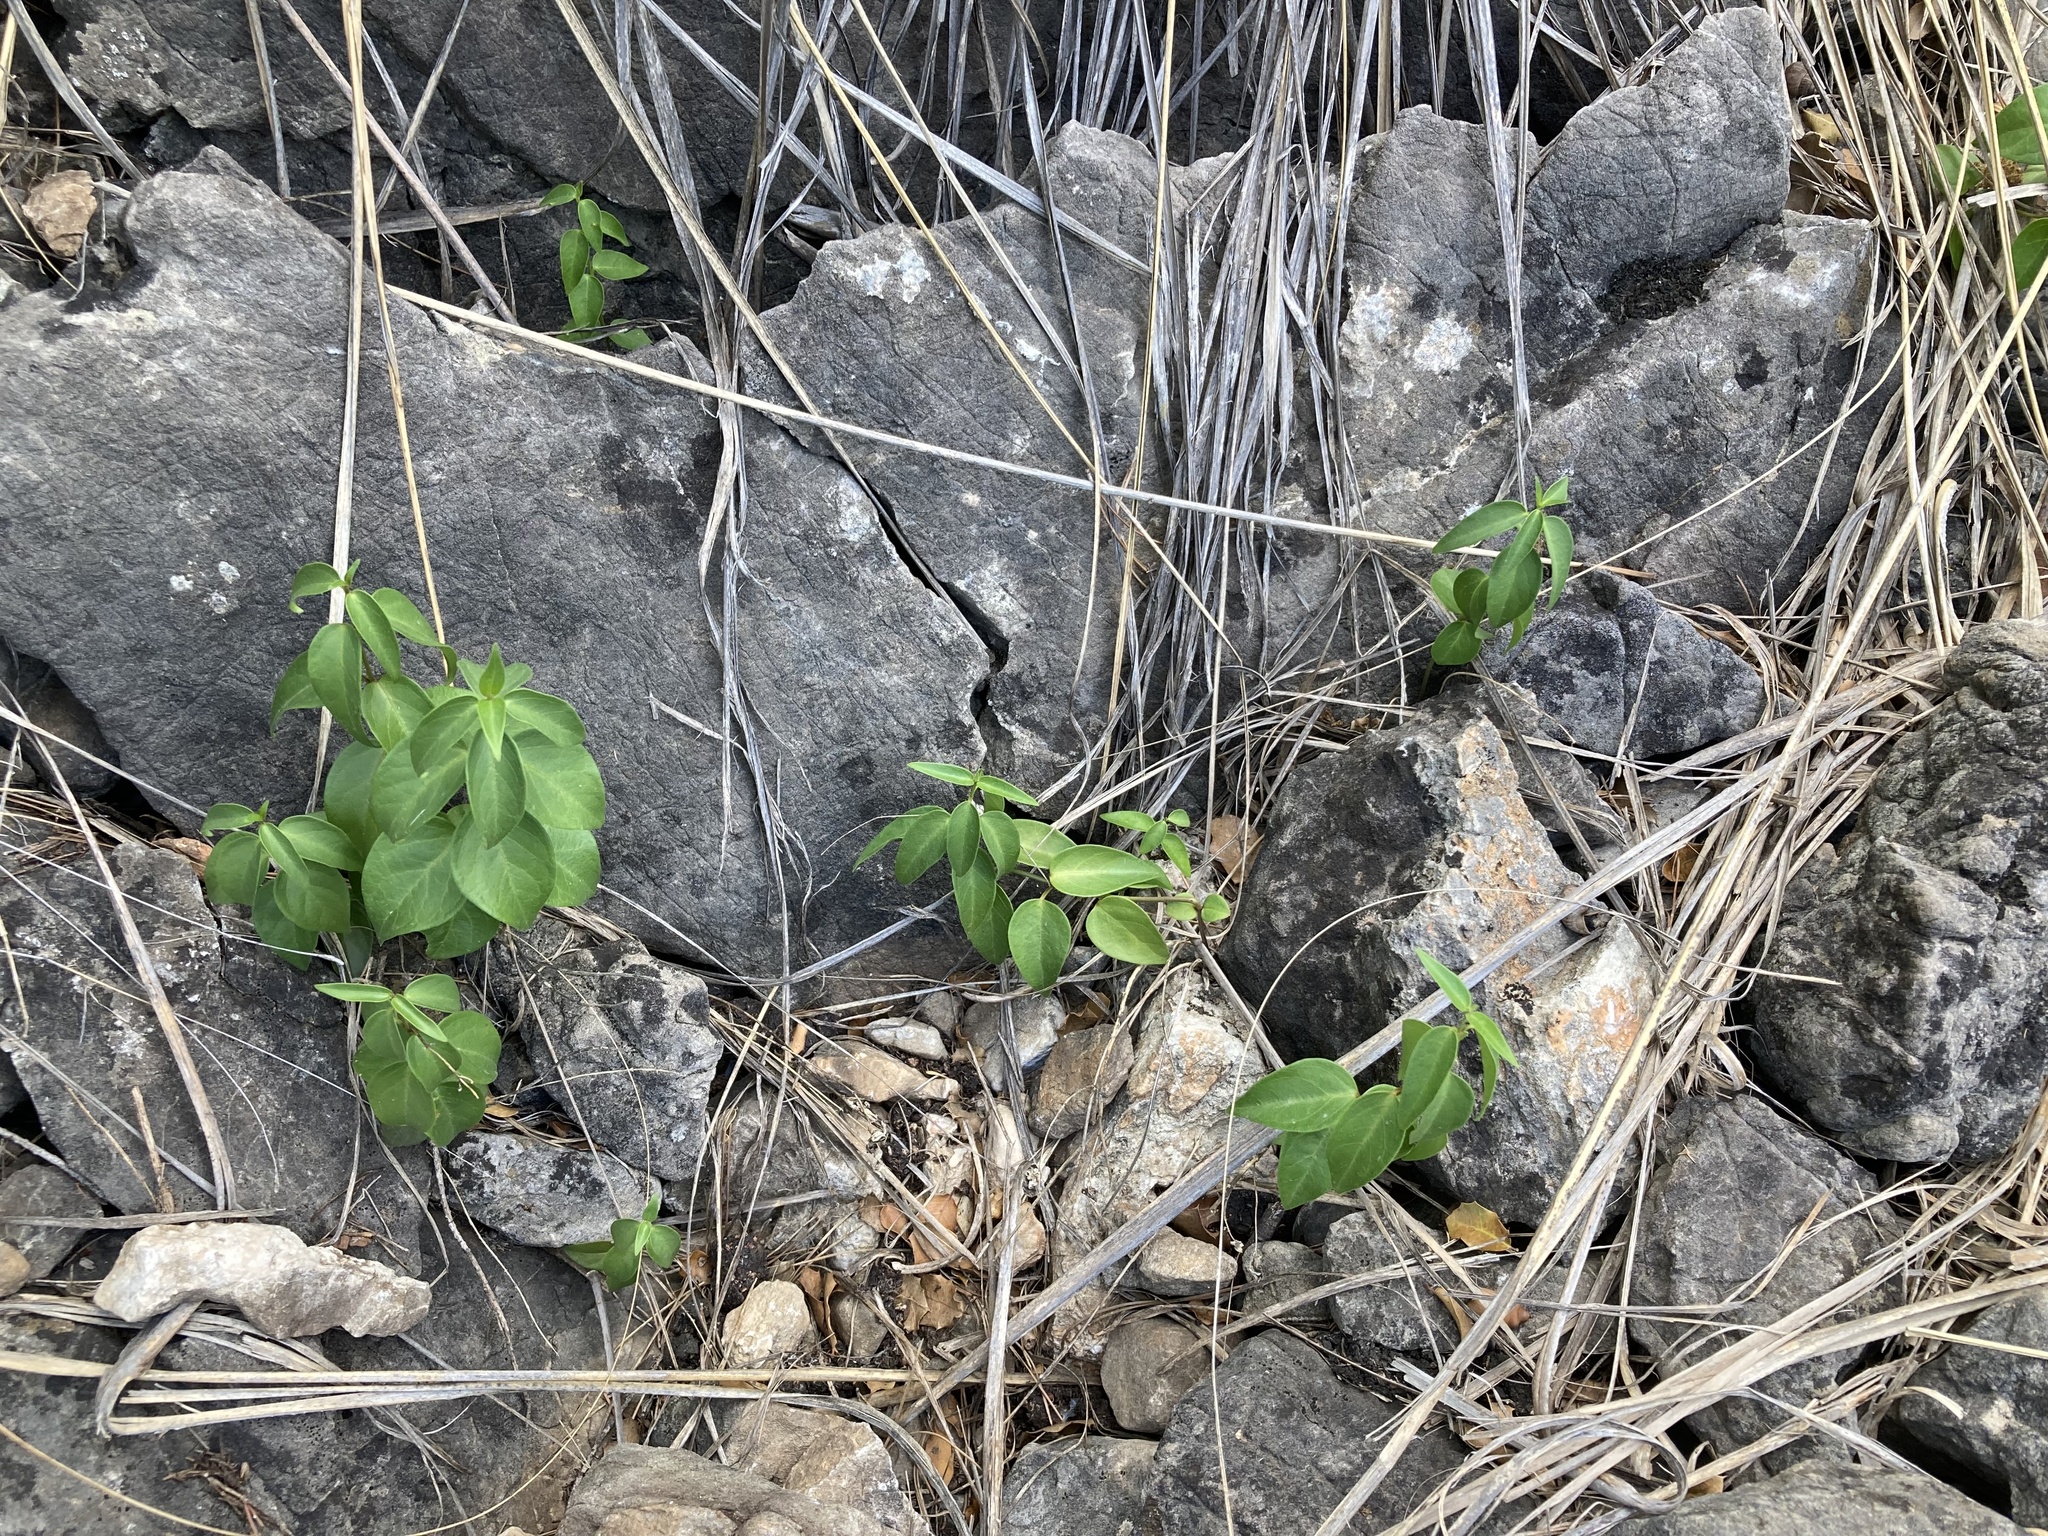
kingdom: Plantae
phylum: Tracheophyta
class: Magnoliopsida
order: Gentianales
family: Apocynaceae
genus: Vincetoxicum
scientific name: Vincetoxicum hirundinaria
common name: White swallowwort
